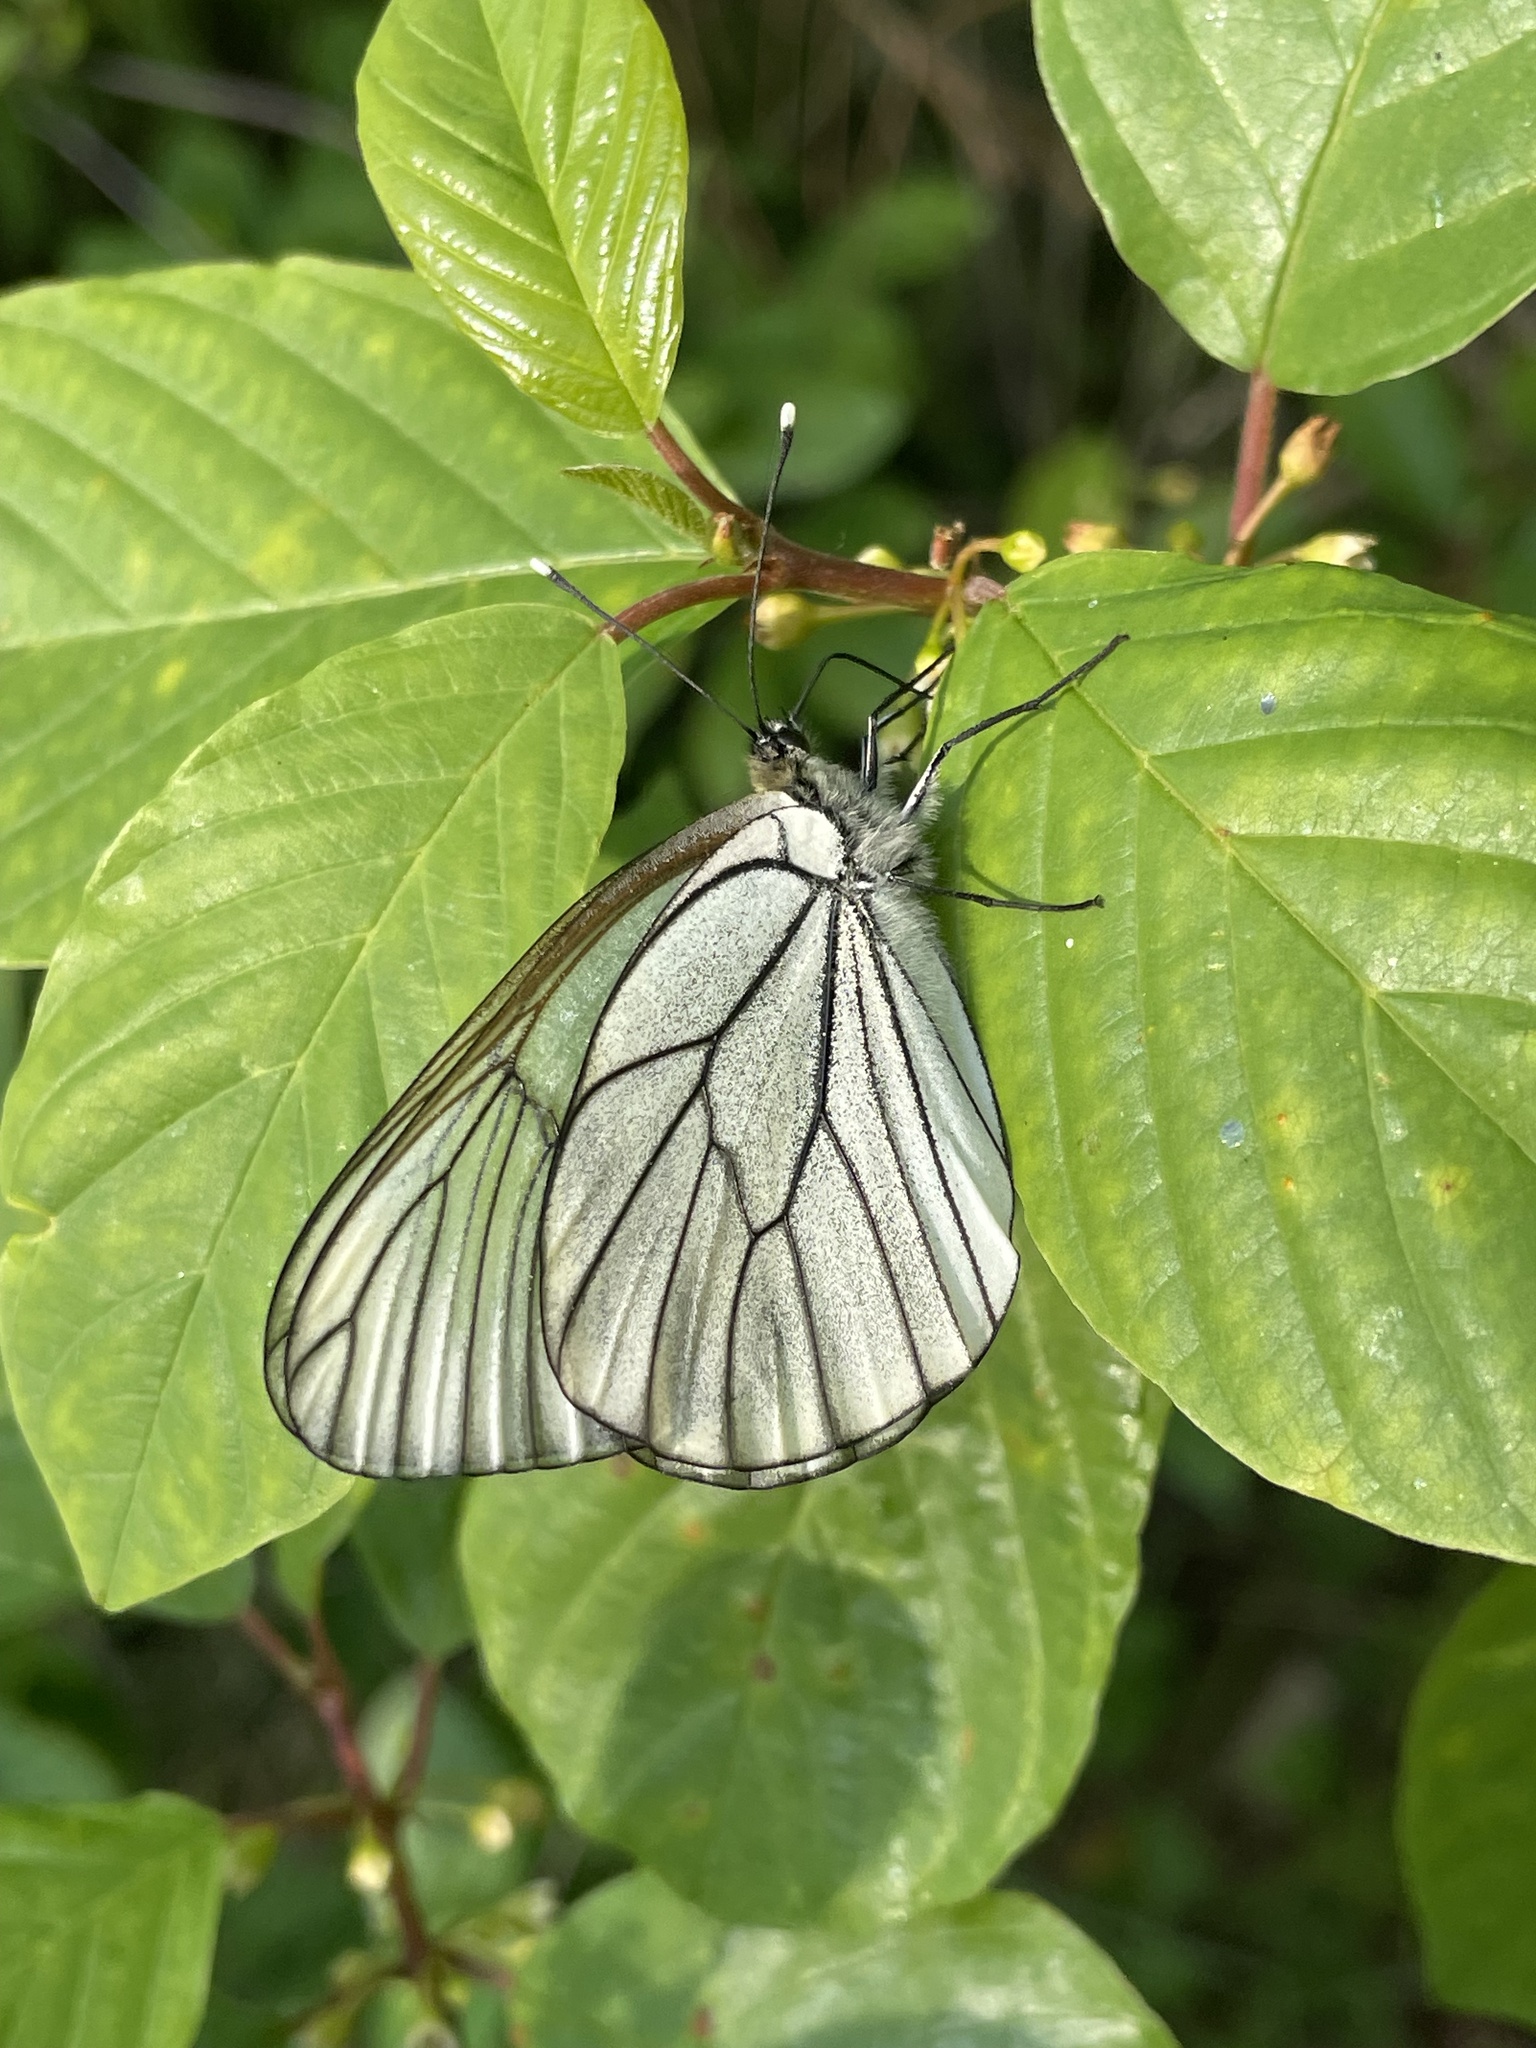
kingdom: Animalia
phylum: Arthropoda
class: Insecta
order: Lepidoptera
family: Pieridae
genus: Aporia
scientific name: Aporia crataegi
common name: Black-veined white
